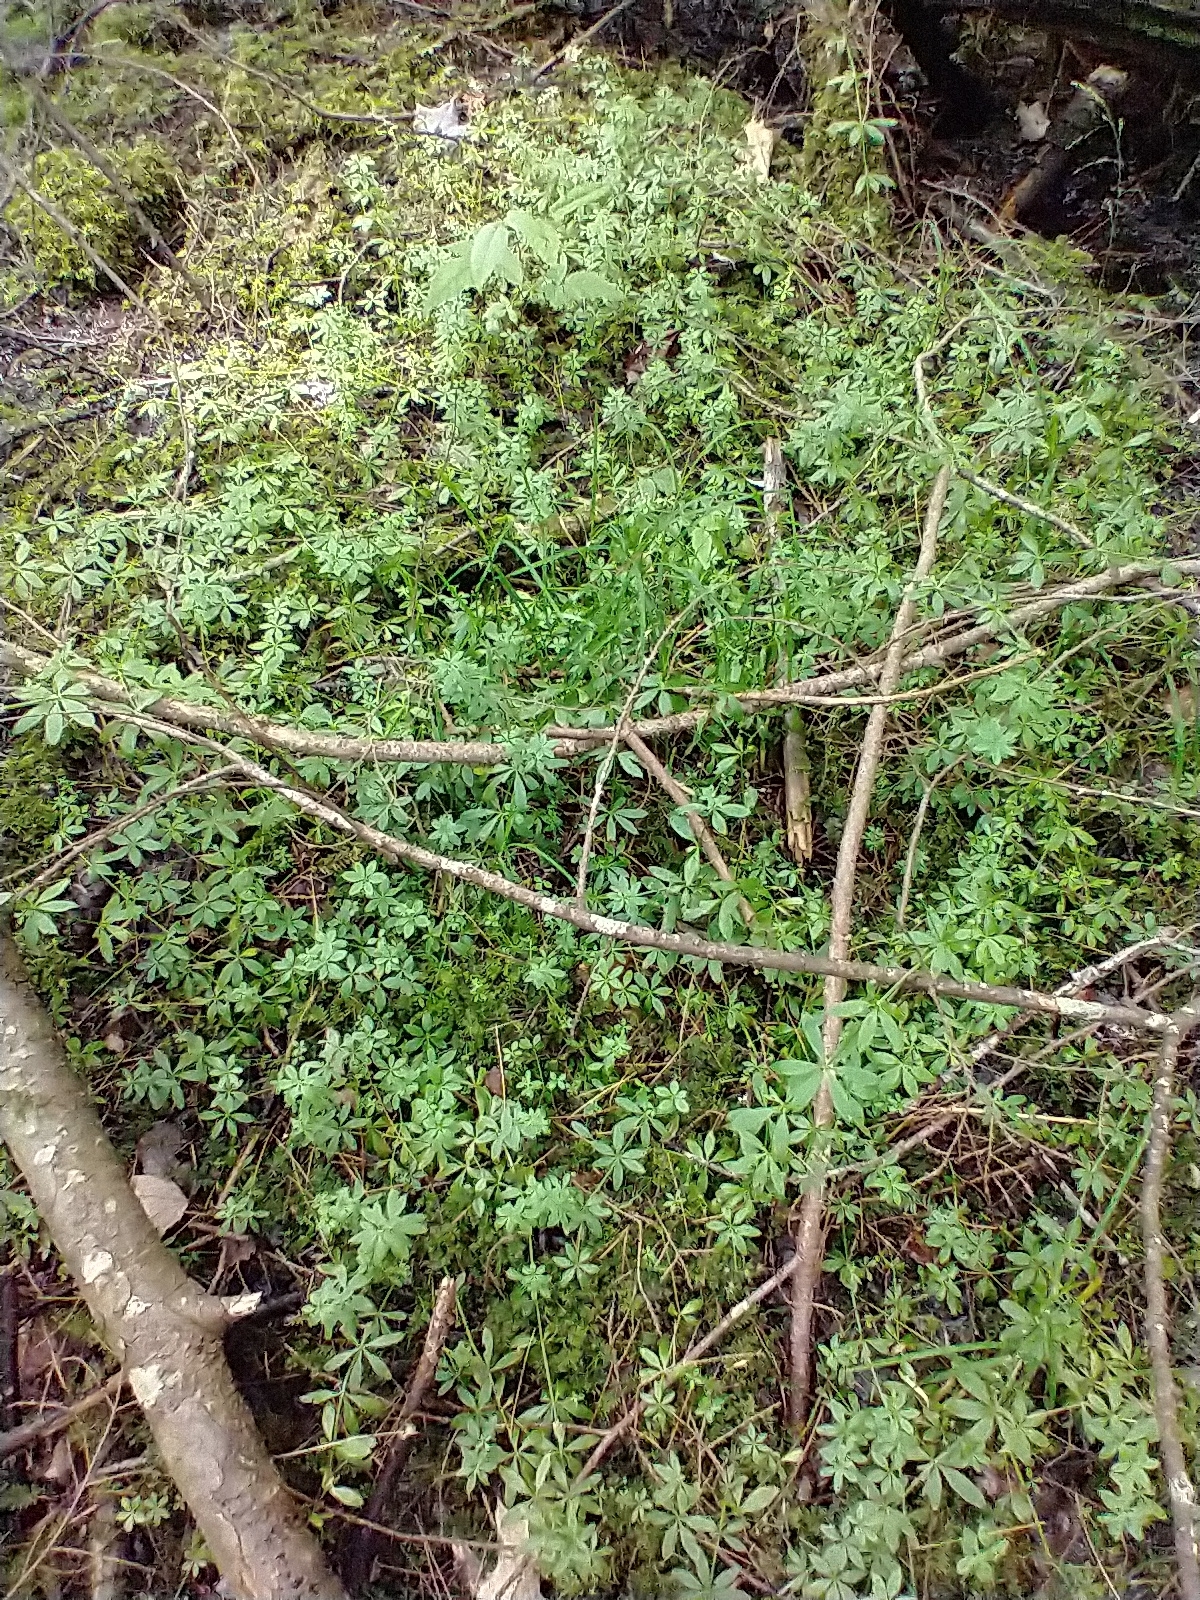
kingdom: Plantae
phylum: Tracheophyta
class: Magnoliopsida
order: Gentianales
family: Rubiaceae
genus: Galium
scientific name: Galium triflorum
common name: Fragrant bedstraw
